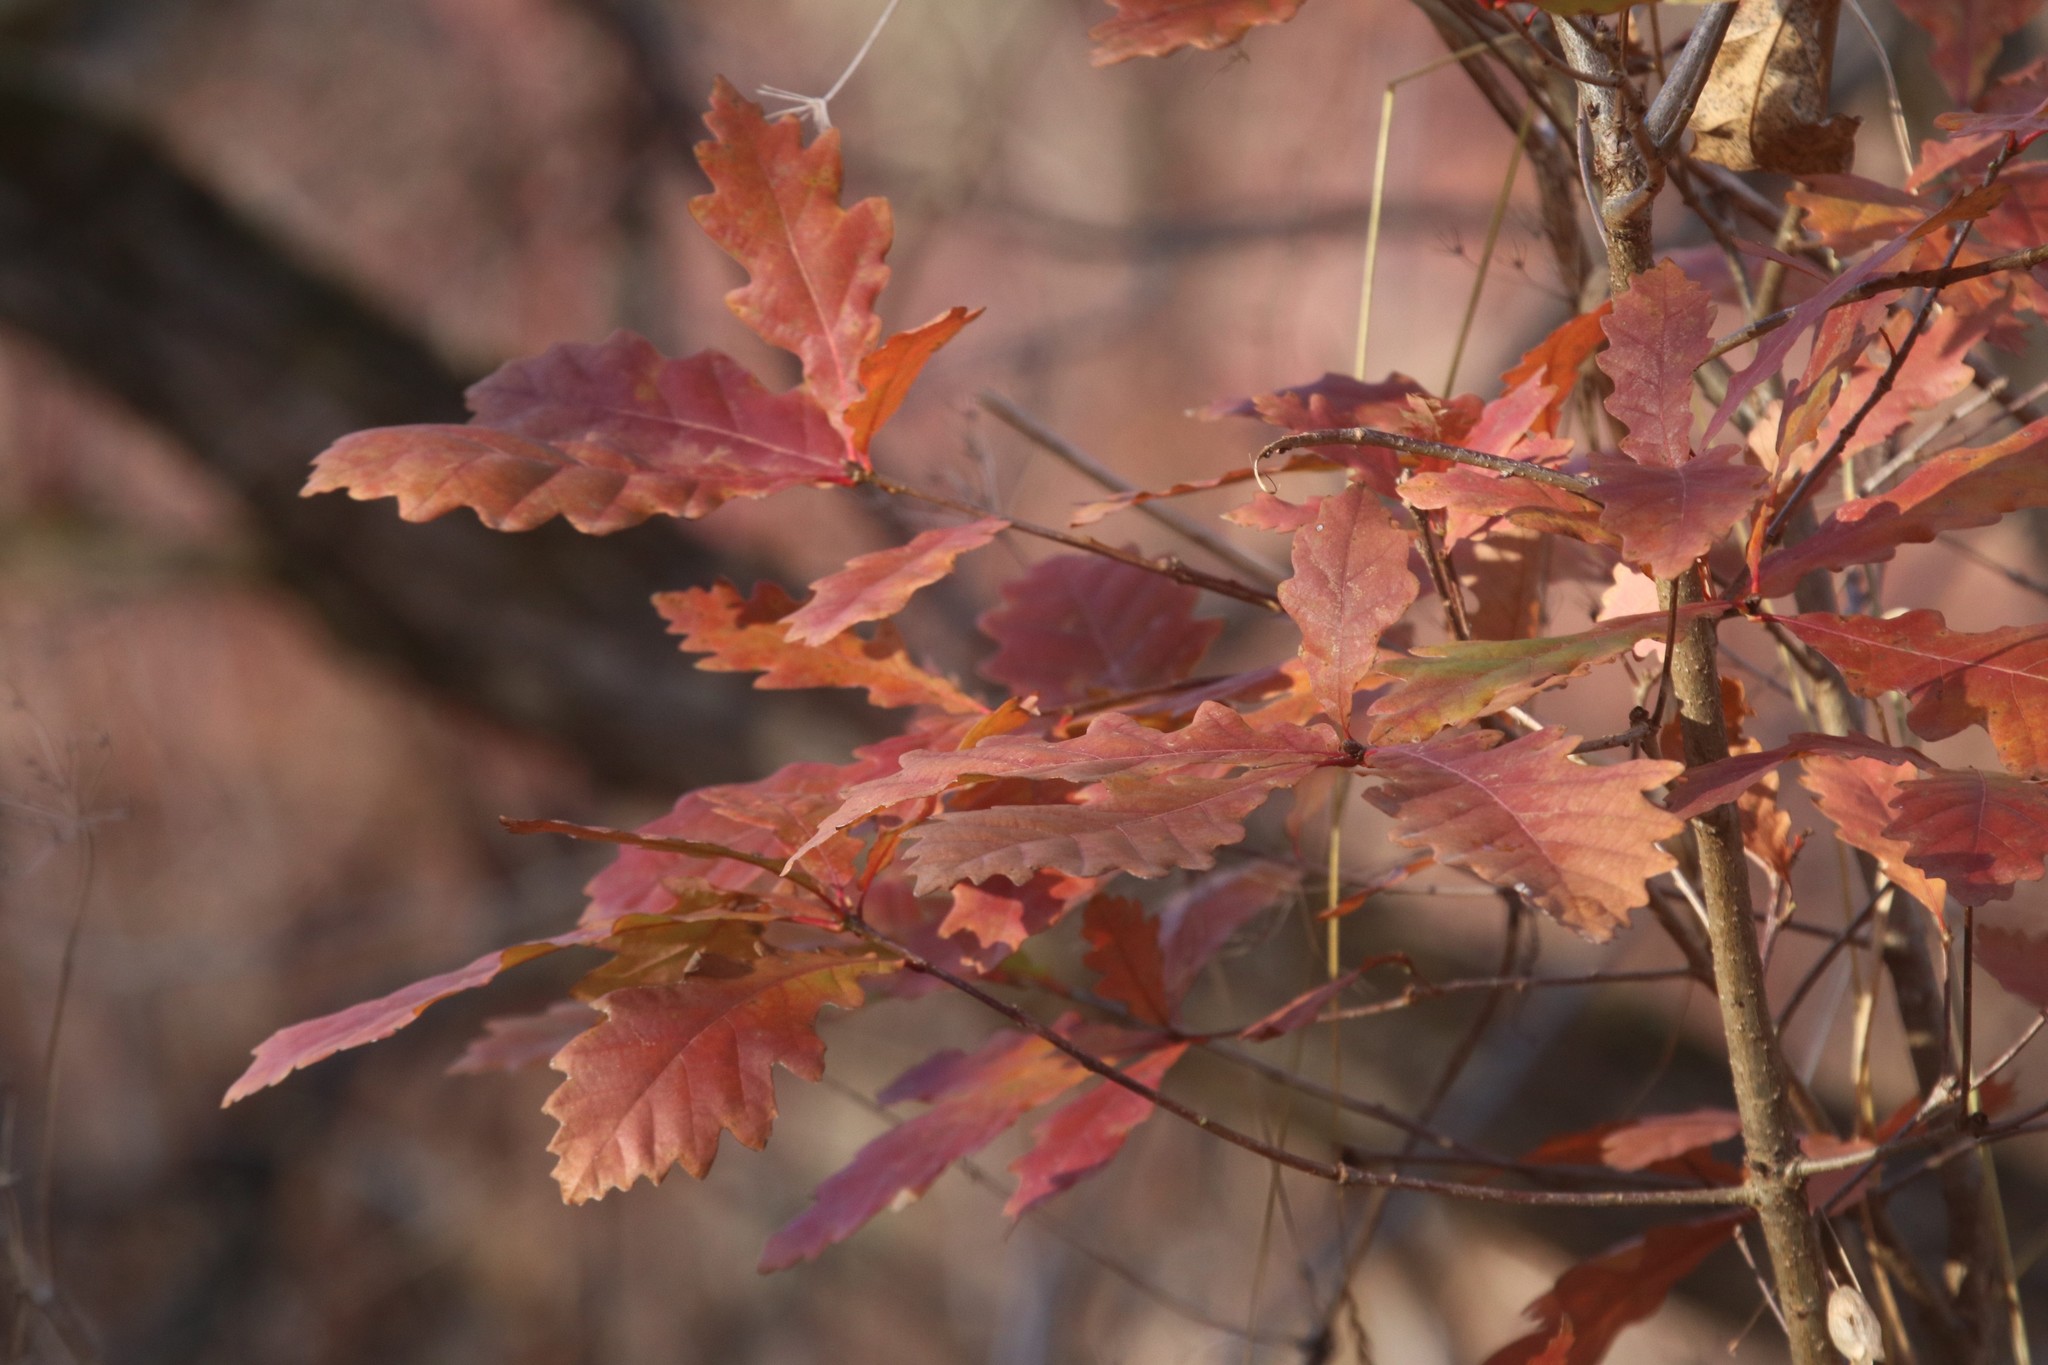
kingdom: Plantae
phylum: Tracheophyta
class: Magnoliopsida
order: Fagales
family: Fagaceae
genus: Quercus
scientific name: Quercus robur
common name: Pedunculate oak
